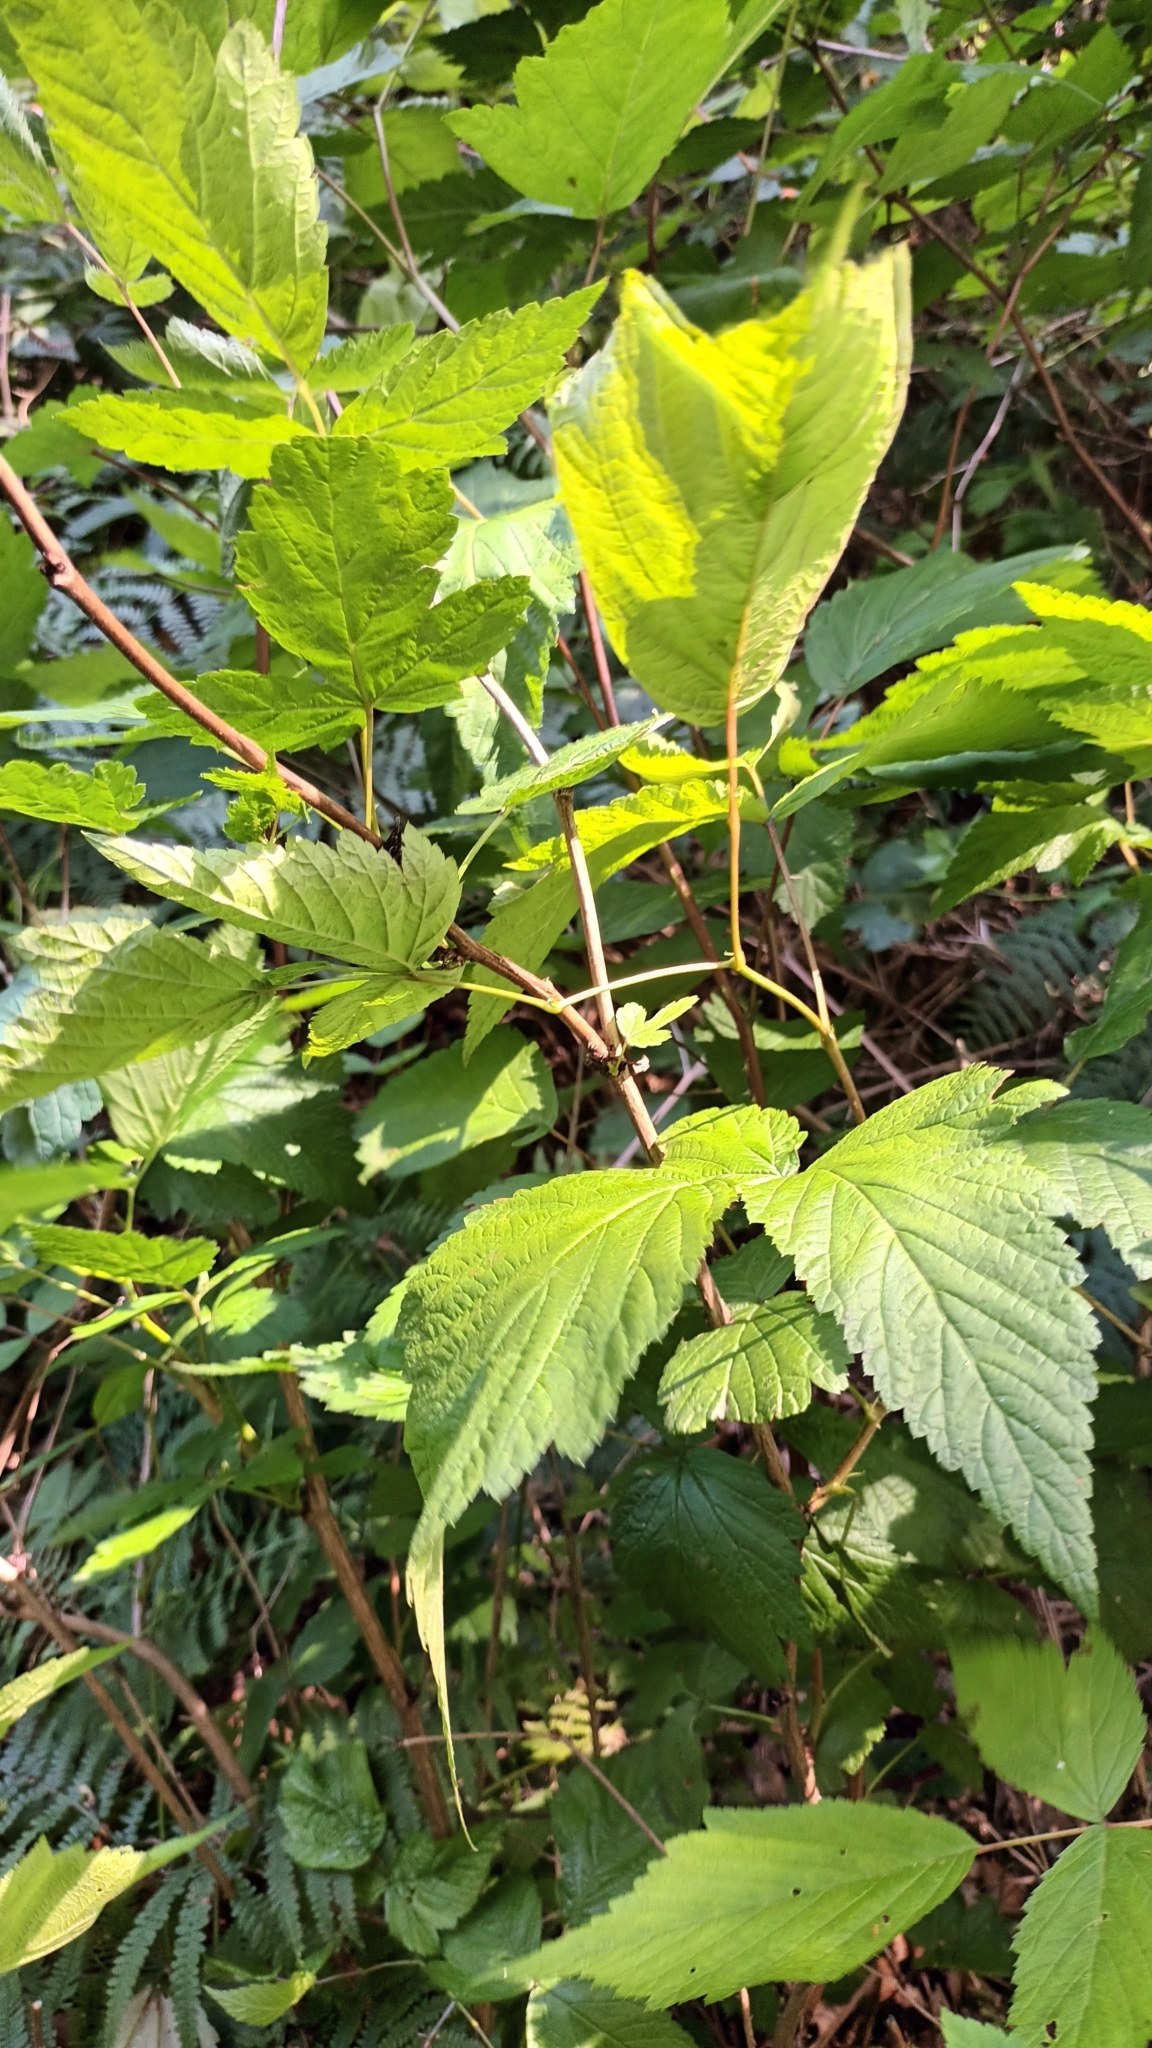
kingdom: Plantae
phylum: Tracheophyta
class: Magnoliopsida
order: Rosales
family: Rosaceae
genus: Rubus
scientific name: Rubus spectabilis
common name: Salmonberry
